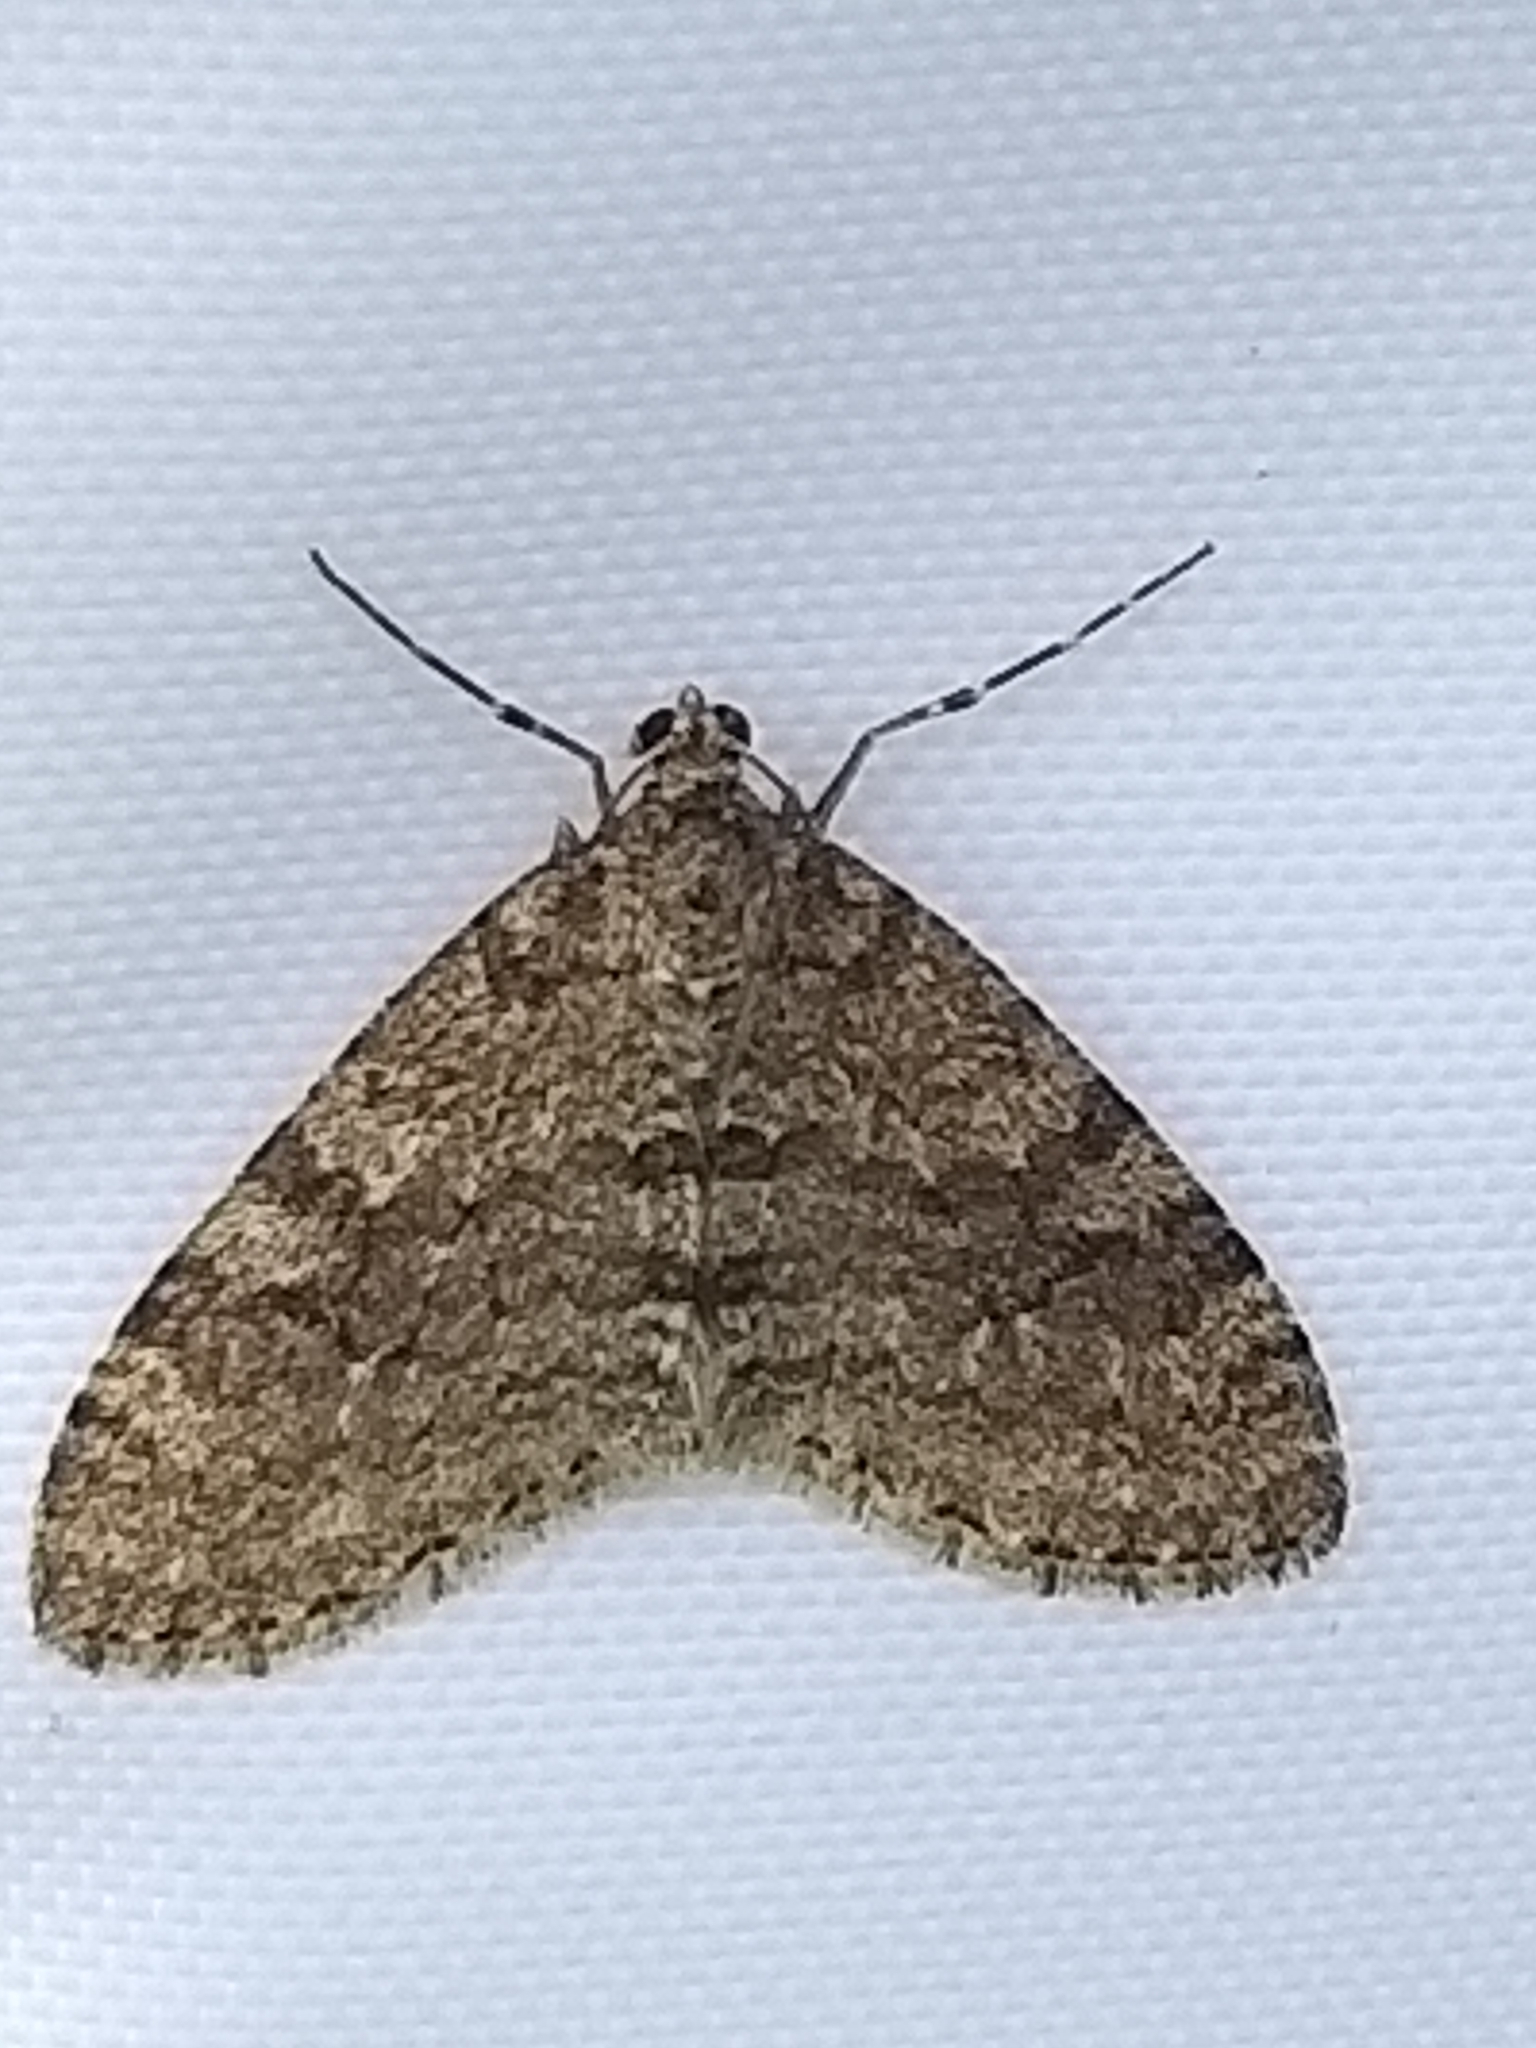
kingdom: Animalia
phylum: Arthropoda
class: Insecta
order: Lepidoptera
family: Geometridae
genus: Trichopteryx
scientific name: Trichopteryx carpinata
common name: Early tooth-striped
